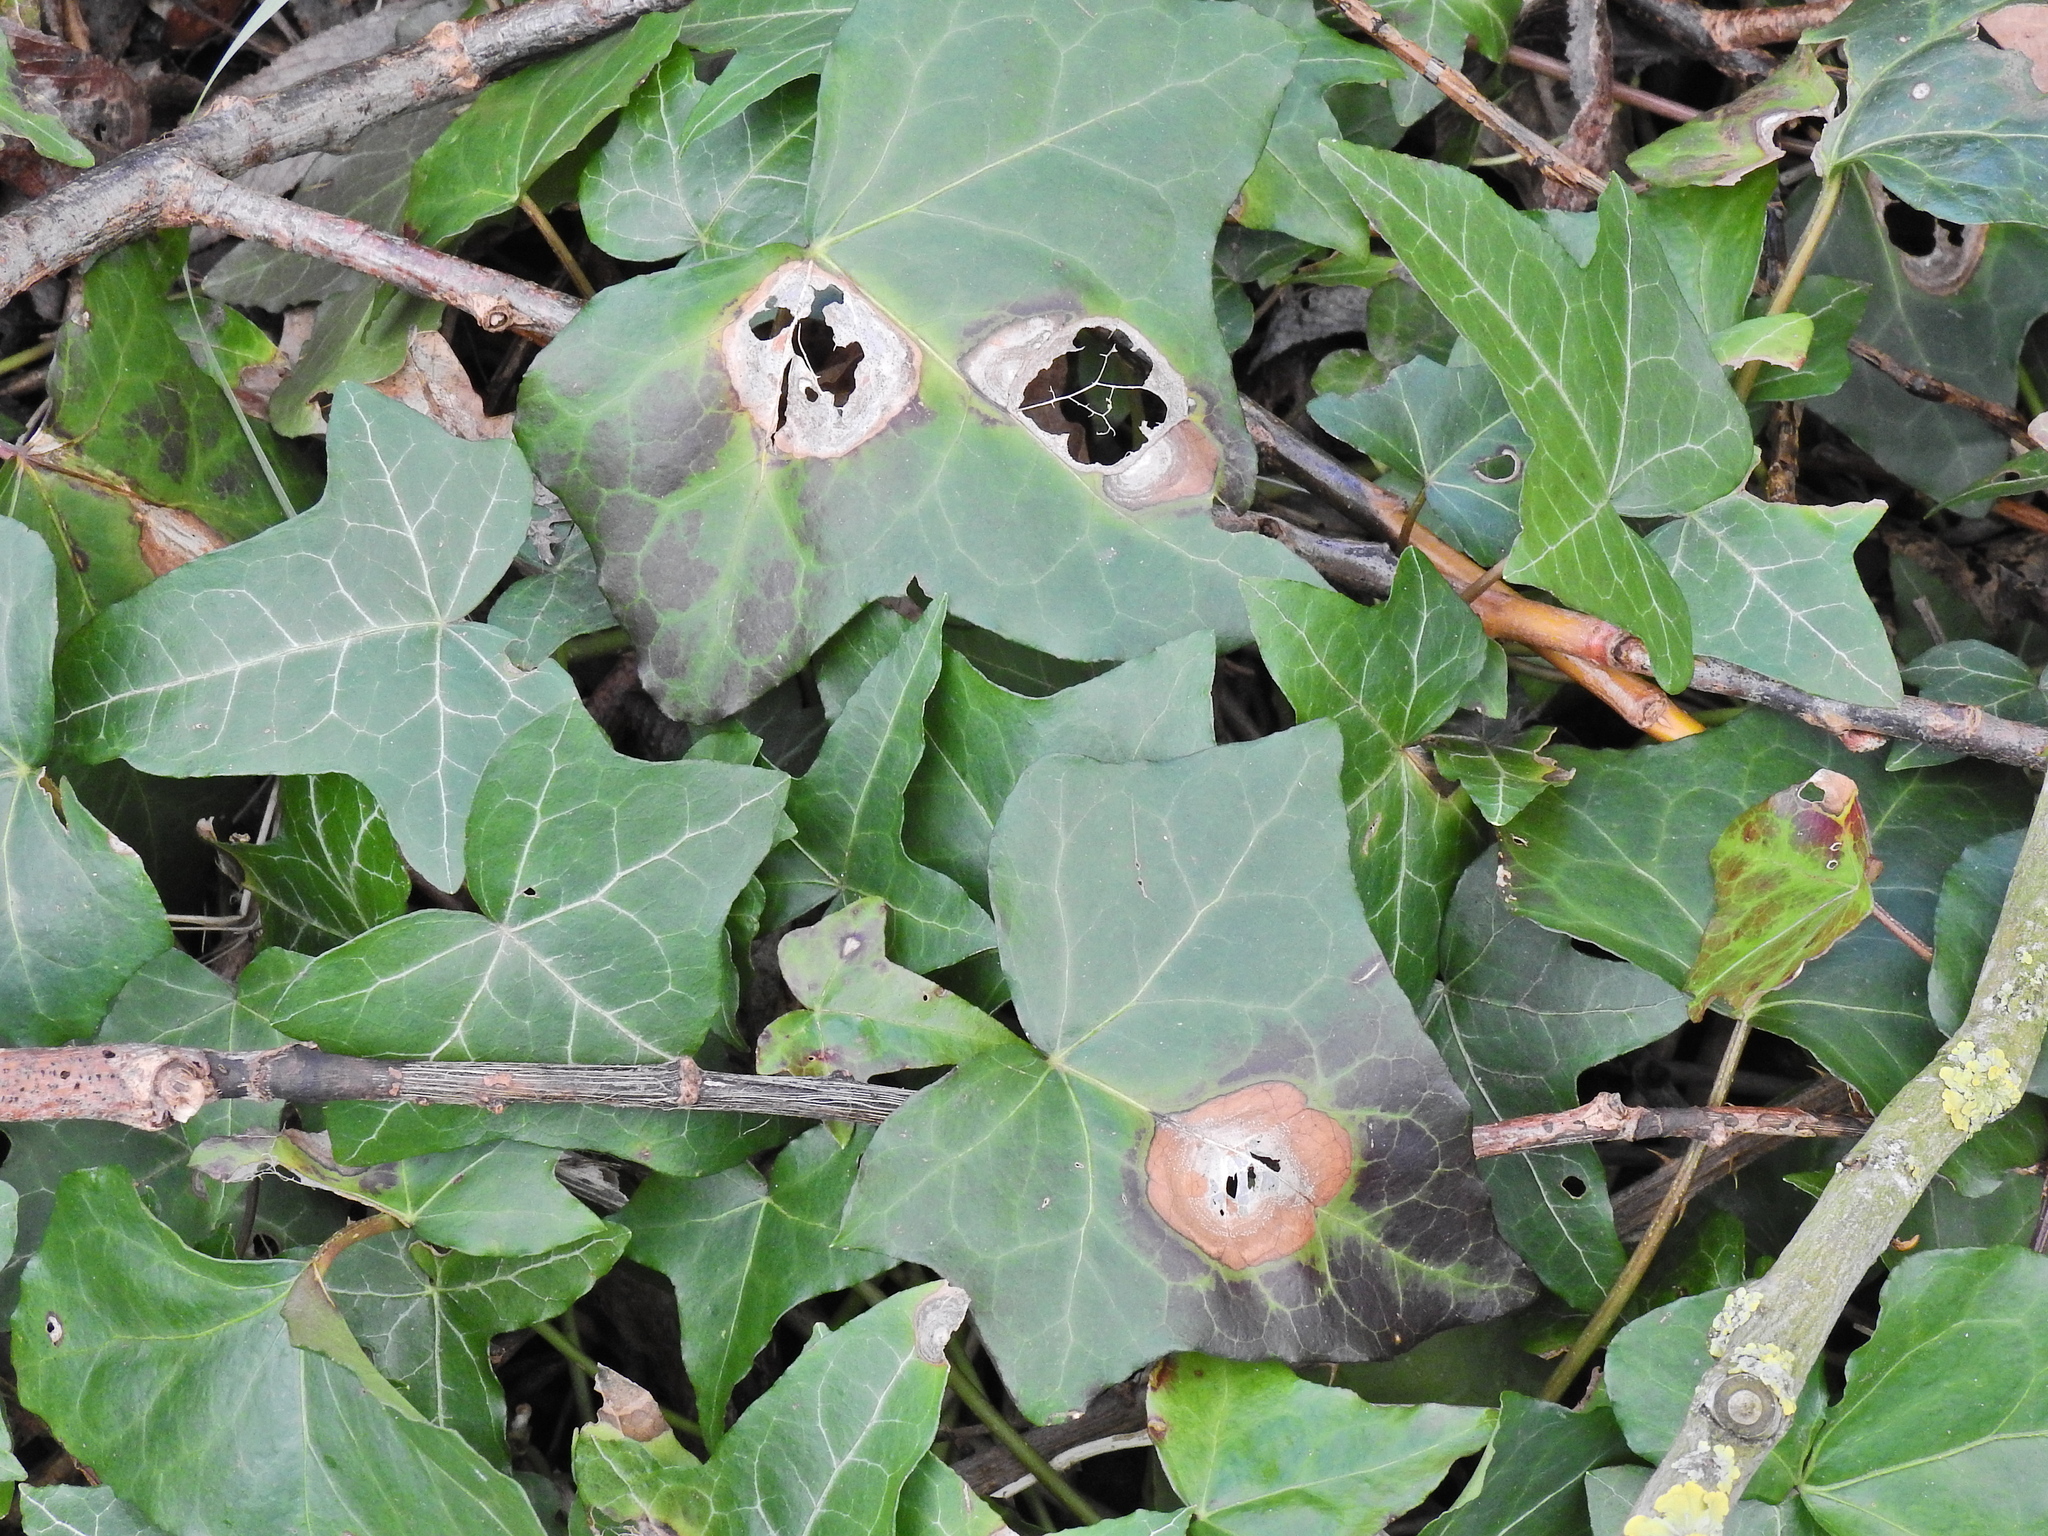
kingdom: Fungi
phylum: Ascomycota
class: Dothideomycetes
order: Pleosporales
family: Didymellaceae
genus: Boeremia
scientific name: Boeremia hedericola
